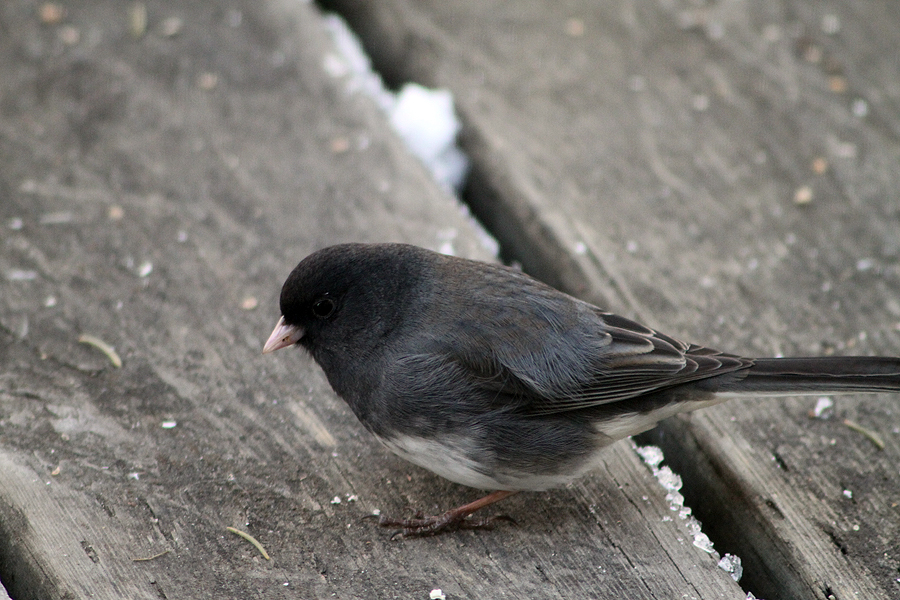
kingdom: Animalia
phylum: Chordata
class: Aves
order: Passeriformes
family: Passerellidae
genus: Junco
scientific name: Junco hyemalis
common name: Dark-eyed junco
